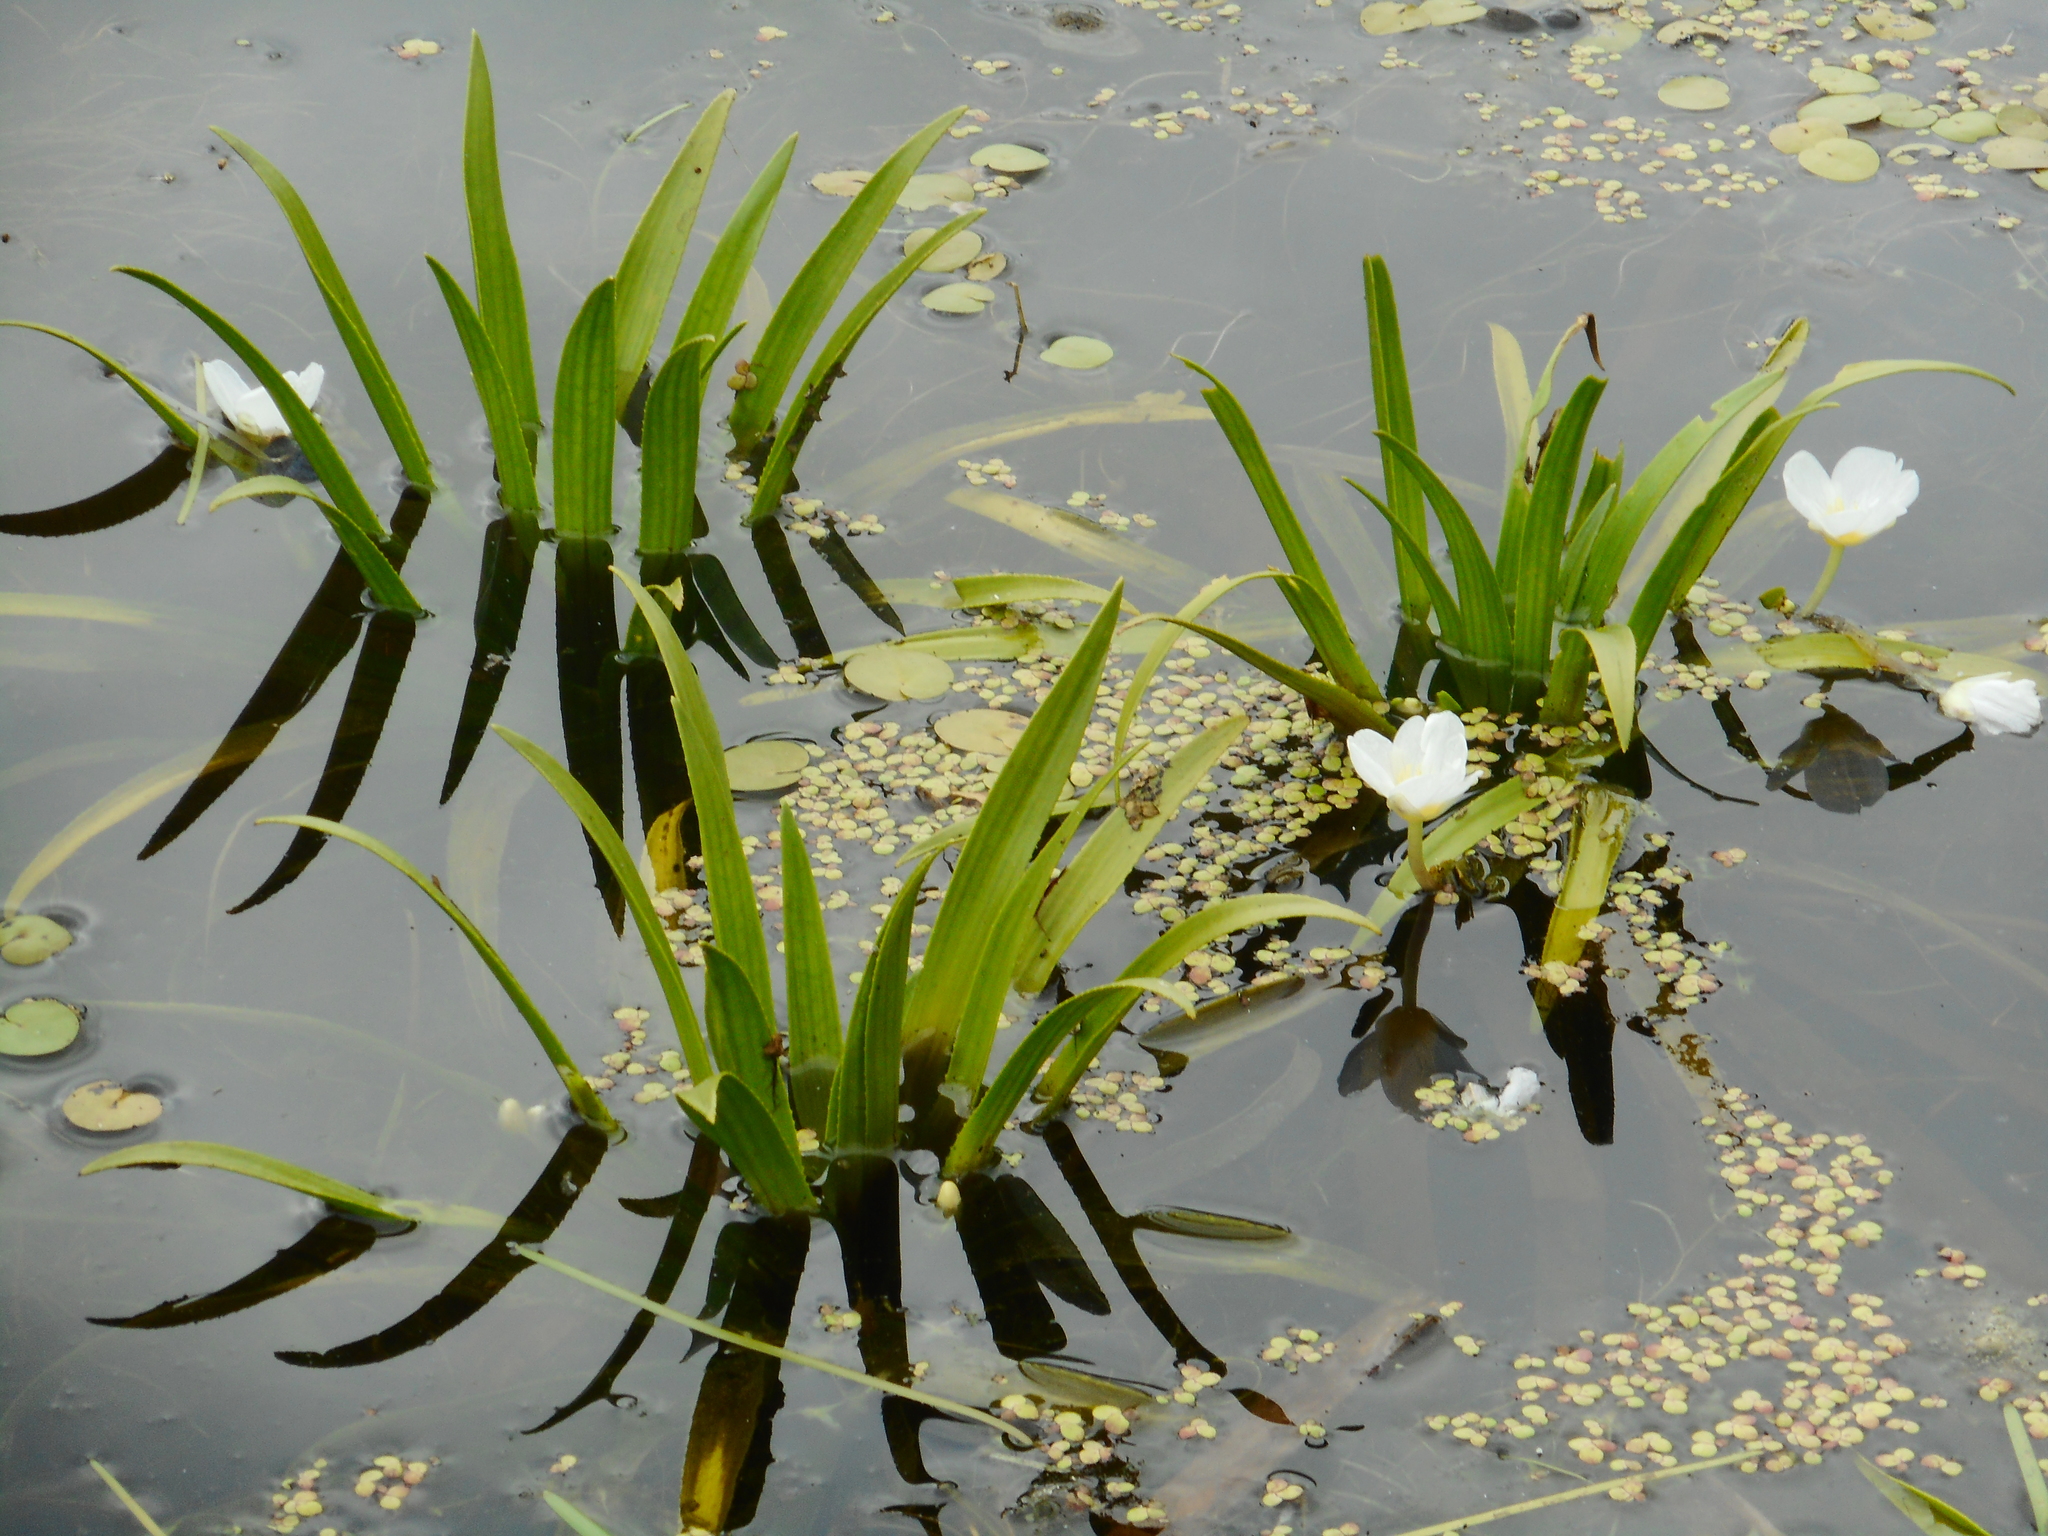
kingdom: Plantae
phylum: Tracheophyta
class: Liliopsida
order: Alismatales
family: Hydrocharitaceae
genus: Stratiotes
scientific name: Stratiotes aloides
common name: Water-soldier
